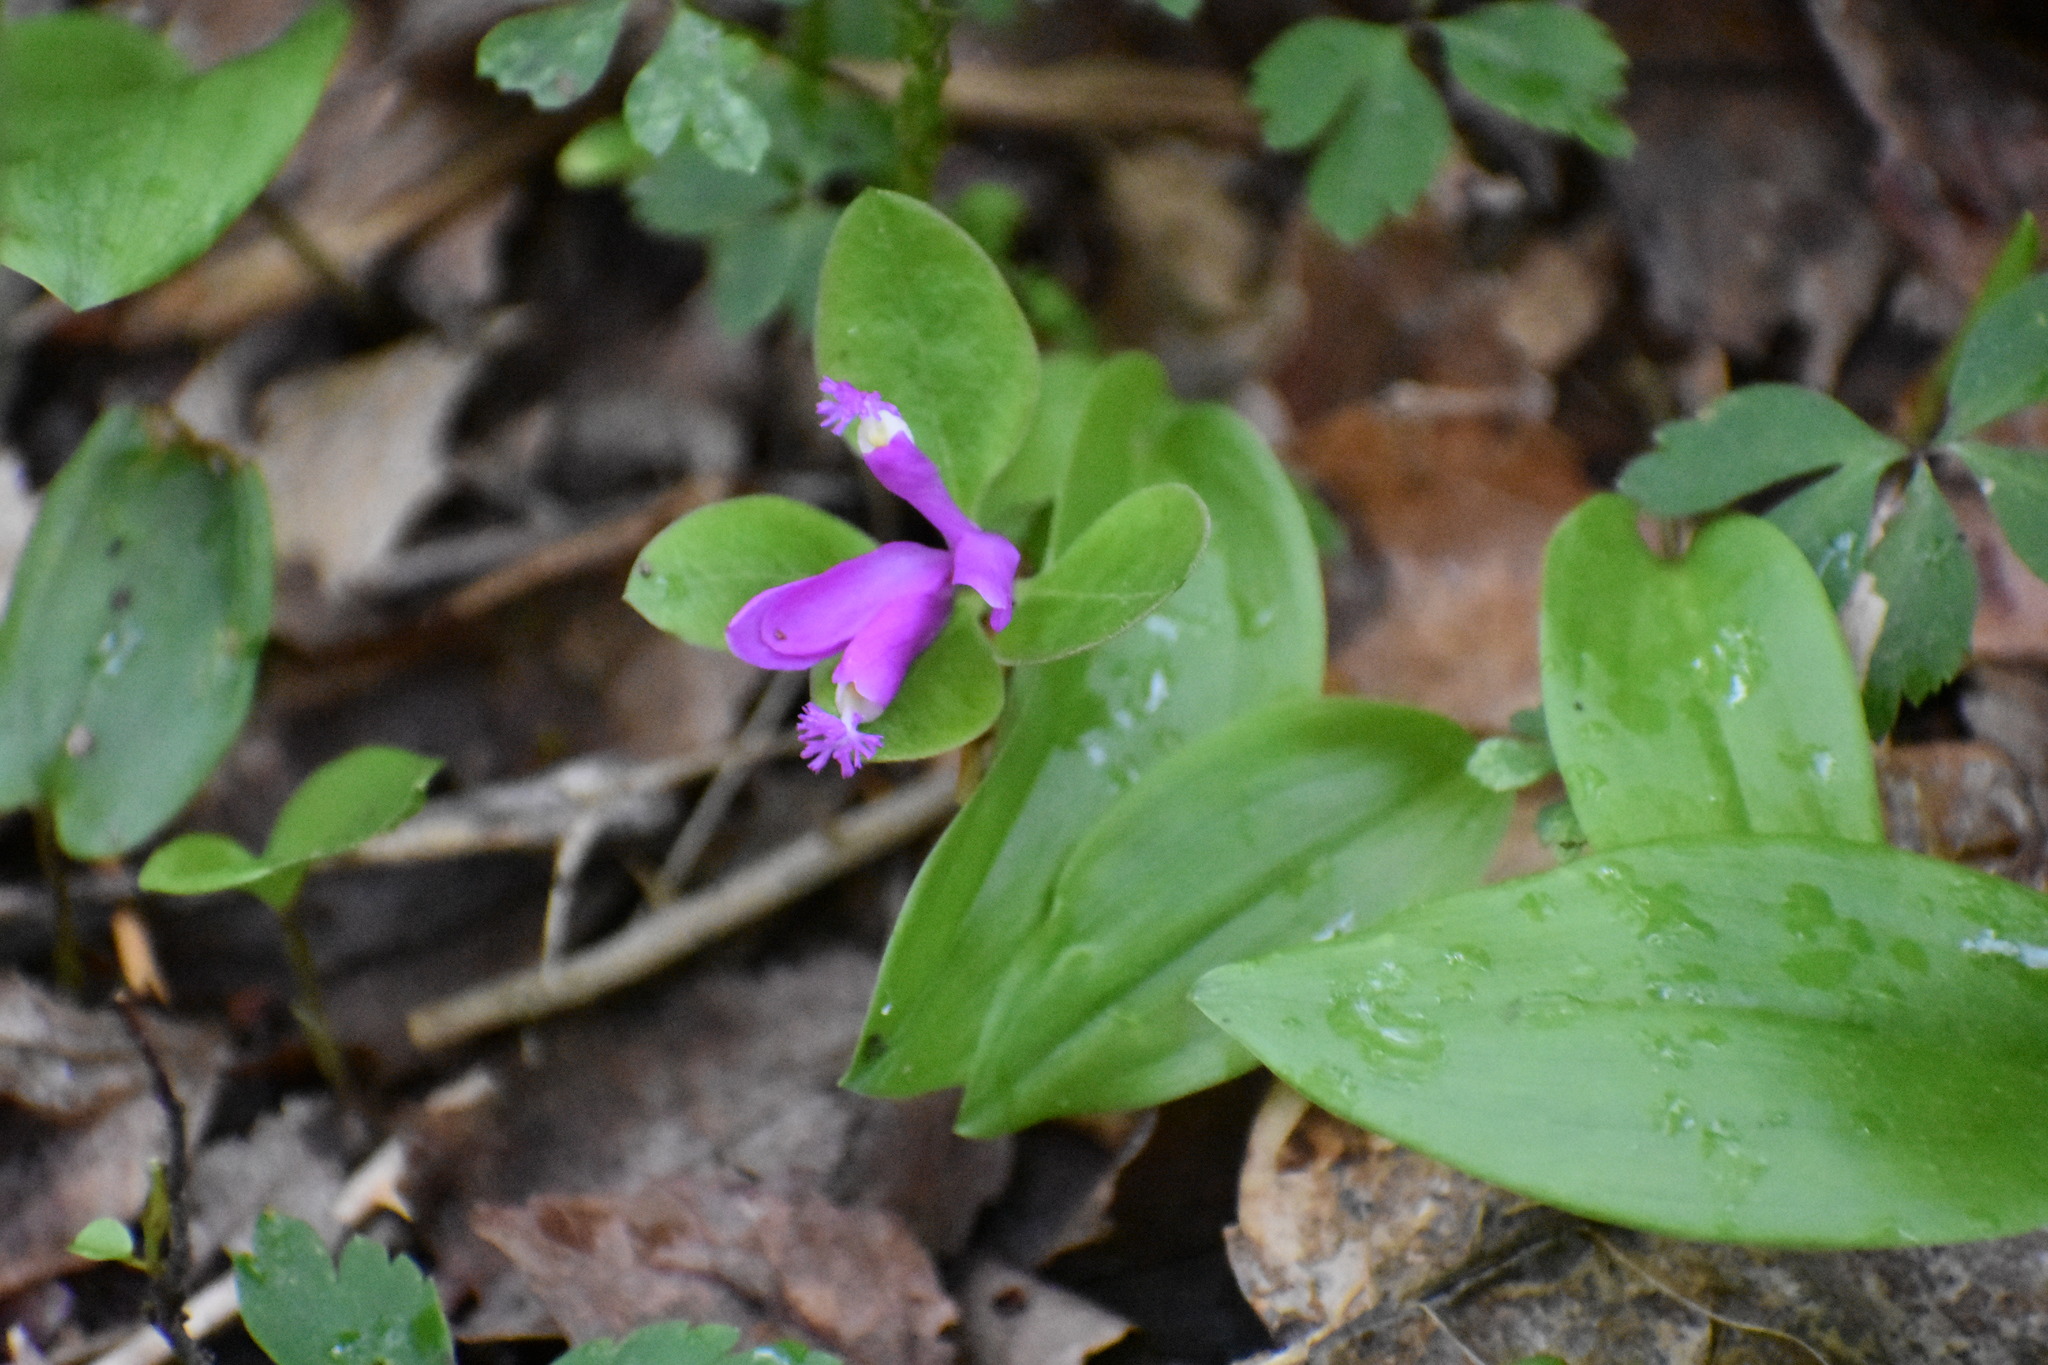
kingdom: Plantae
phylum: Tracheophyta
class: Magnoliopsida
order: Fabales
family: Polygalaceae
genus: Polygaloides
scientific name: Polygaloides paucifolia
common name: Bird-on-the-wing
